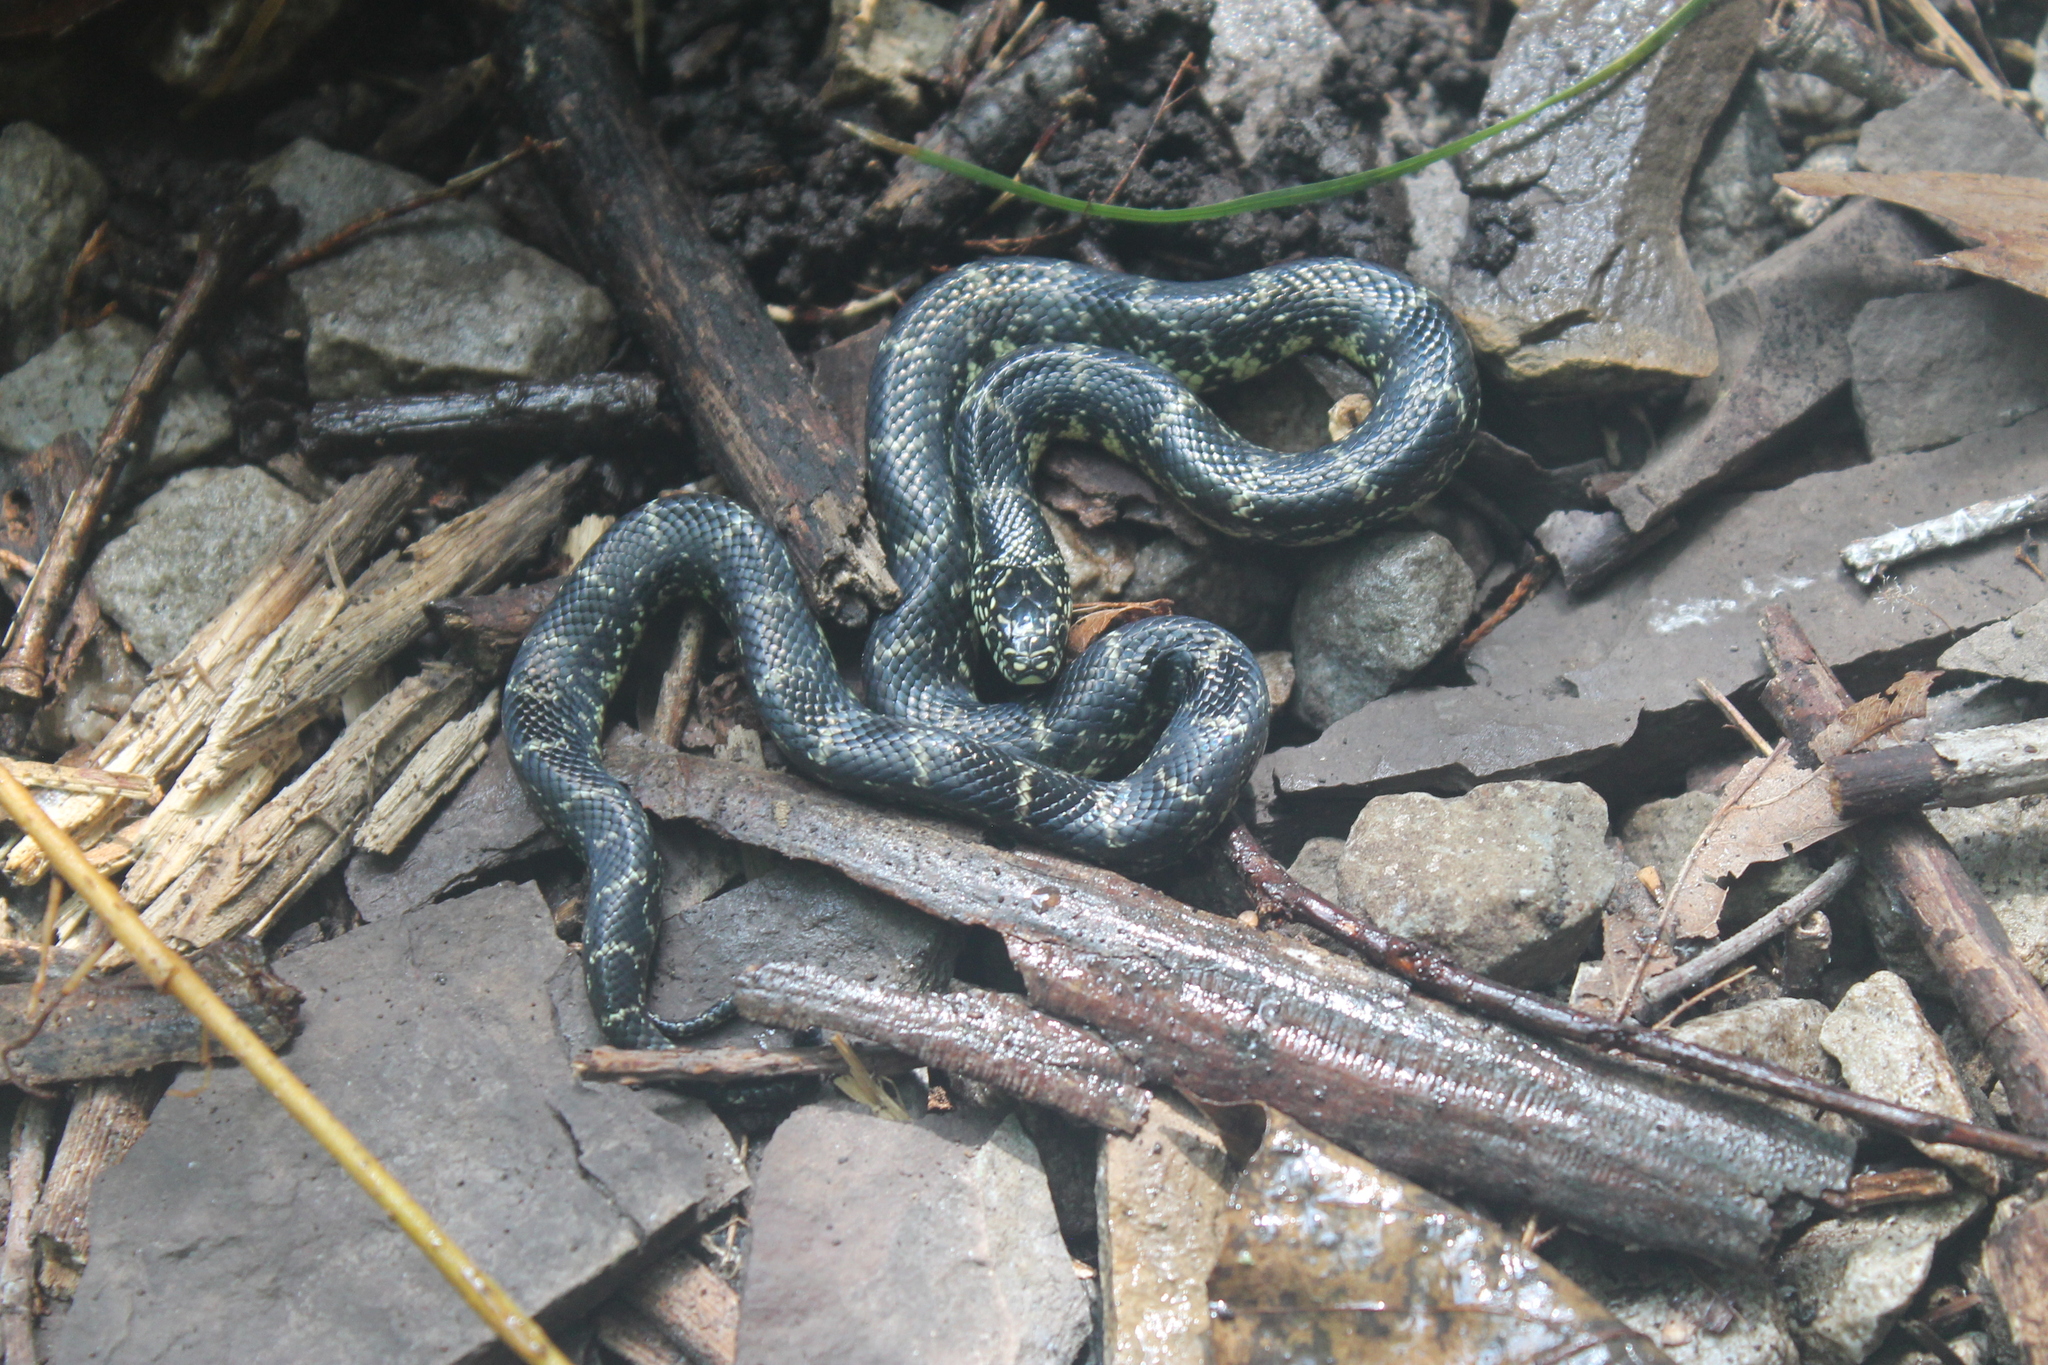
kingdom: Animalia
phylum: Chordata
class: Squamata
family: Colubridae
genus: Lampropeltis
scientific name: Lampropeltis nigra
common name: Black kingsnake
